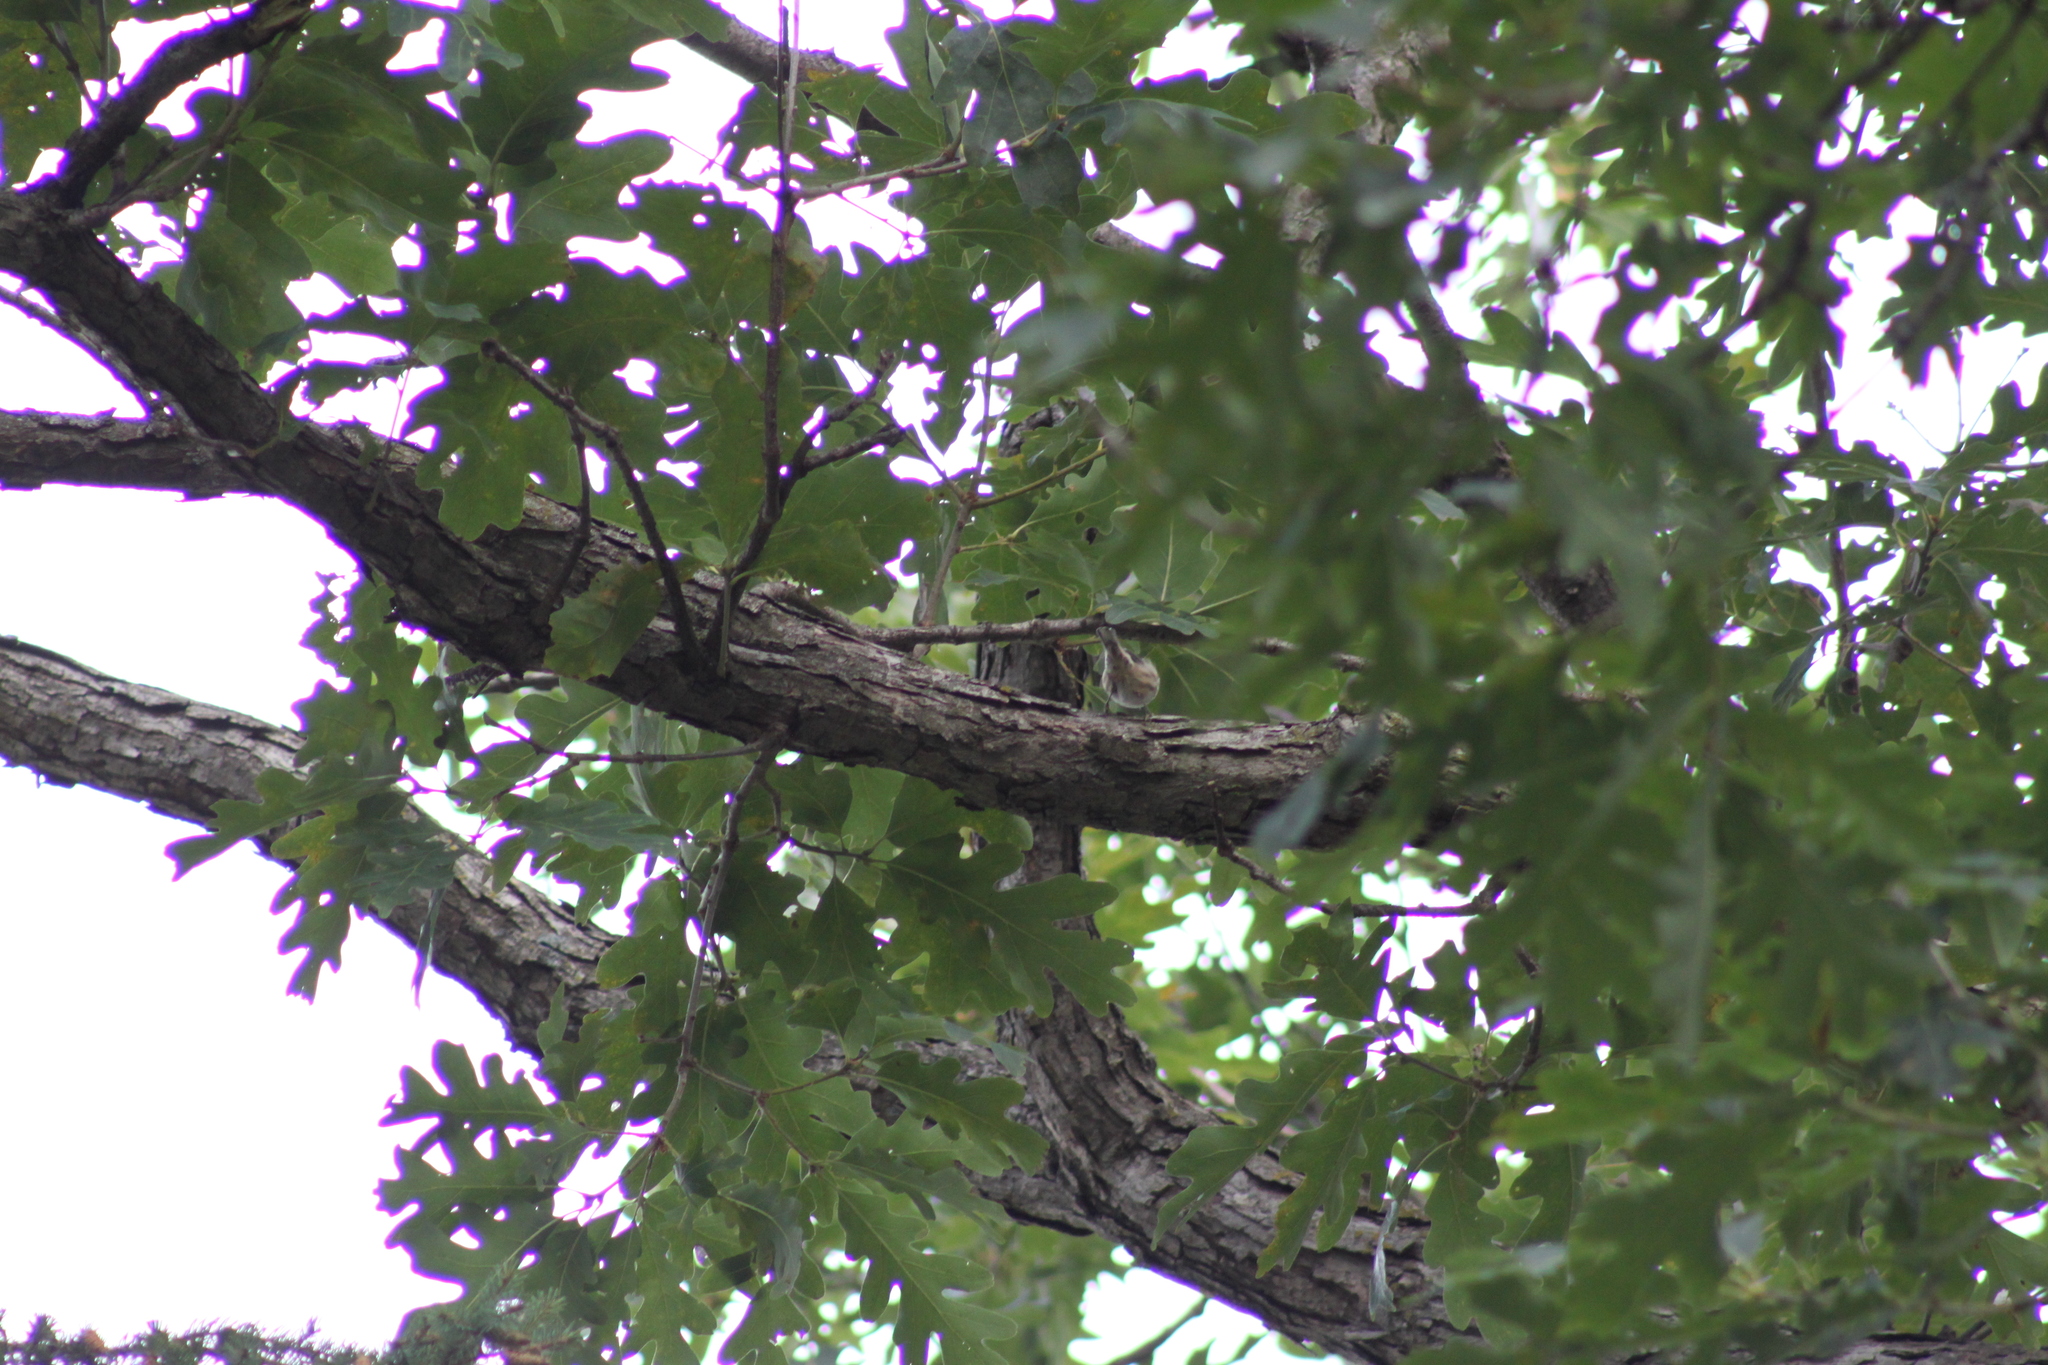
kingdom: Animalia
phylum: Chordata
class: Aves
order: Passeriformes
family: Parulidae
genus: Mniotilta
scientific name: Mniotilta varia
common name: Black-and-white warbler
